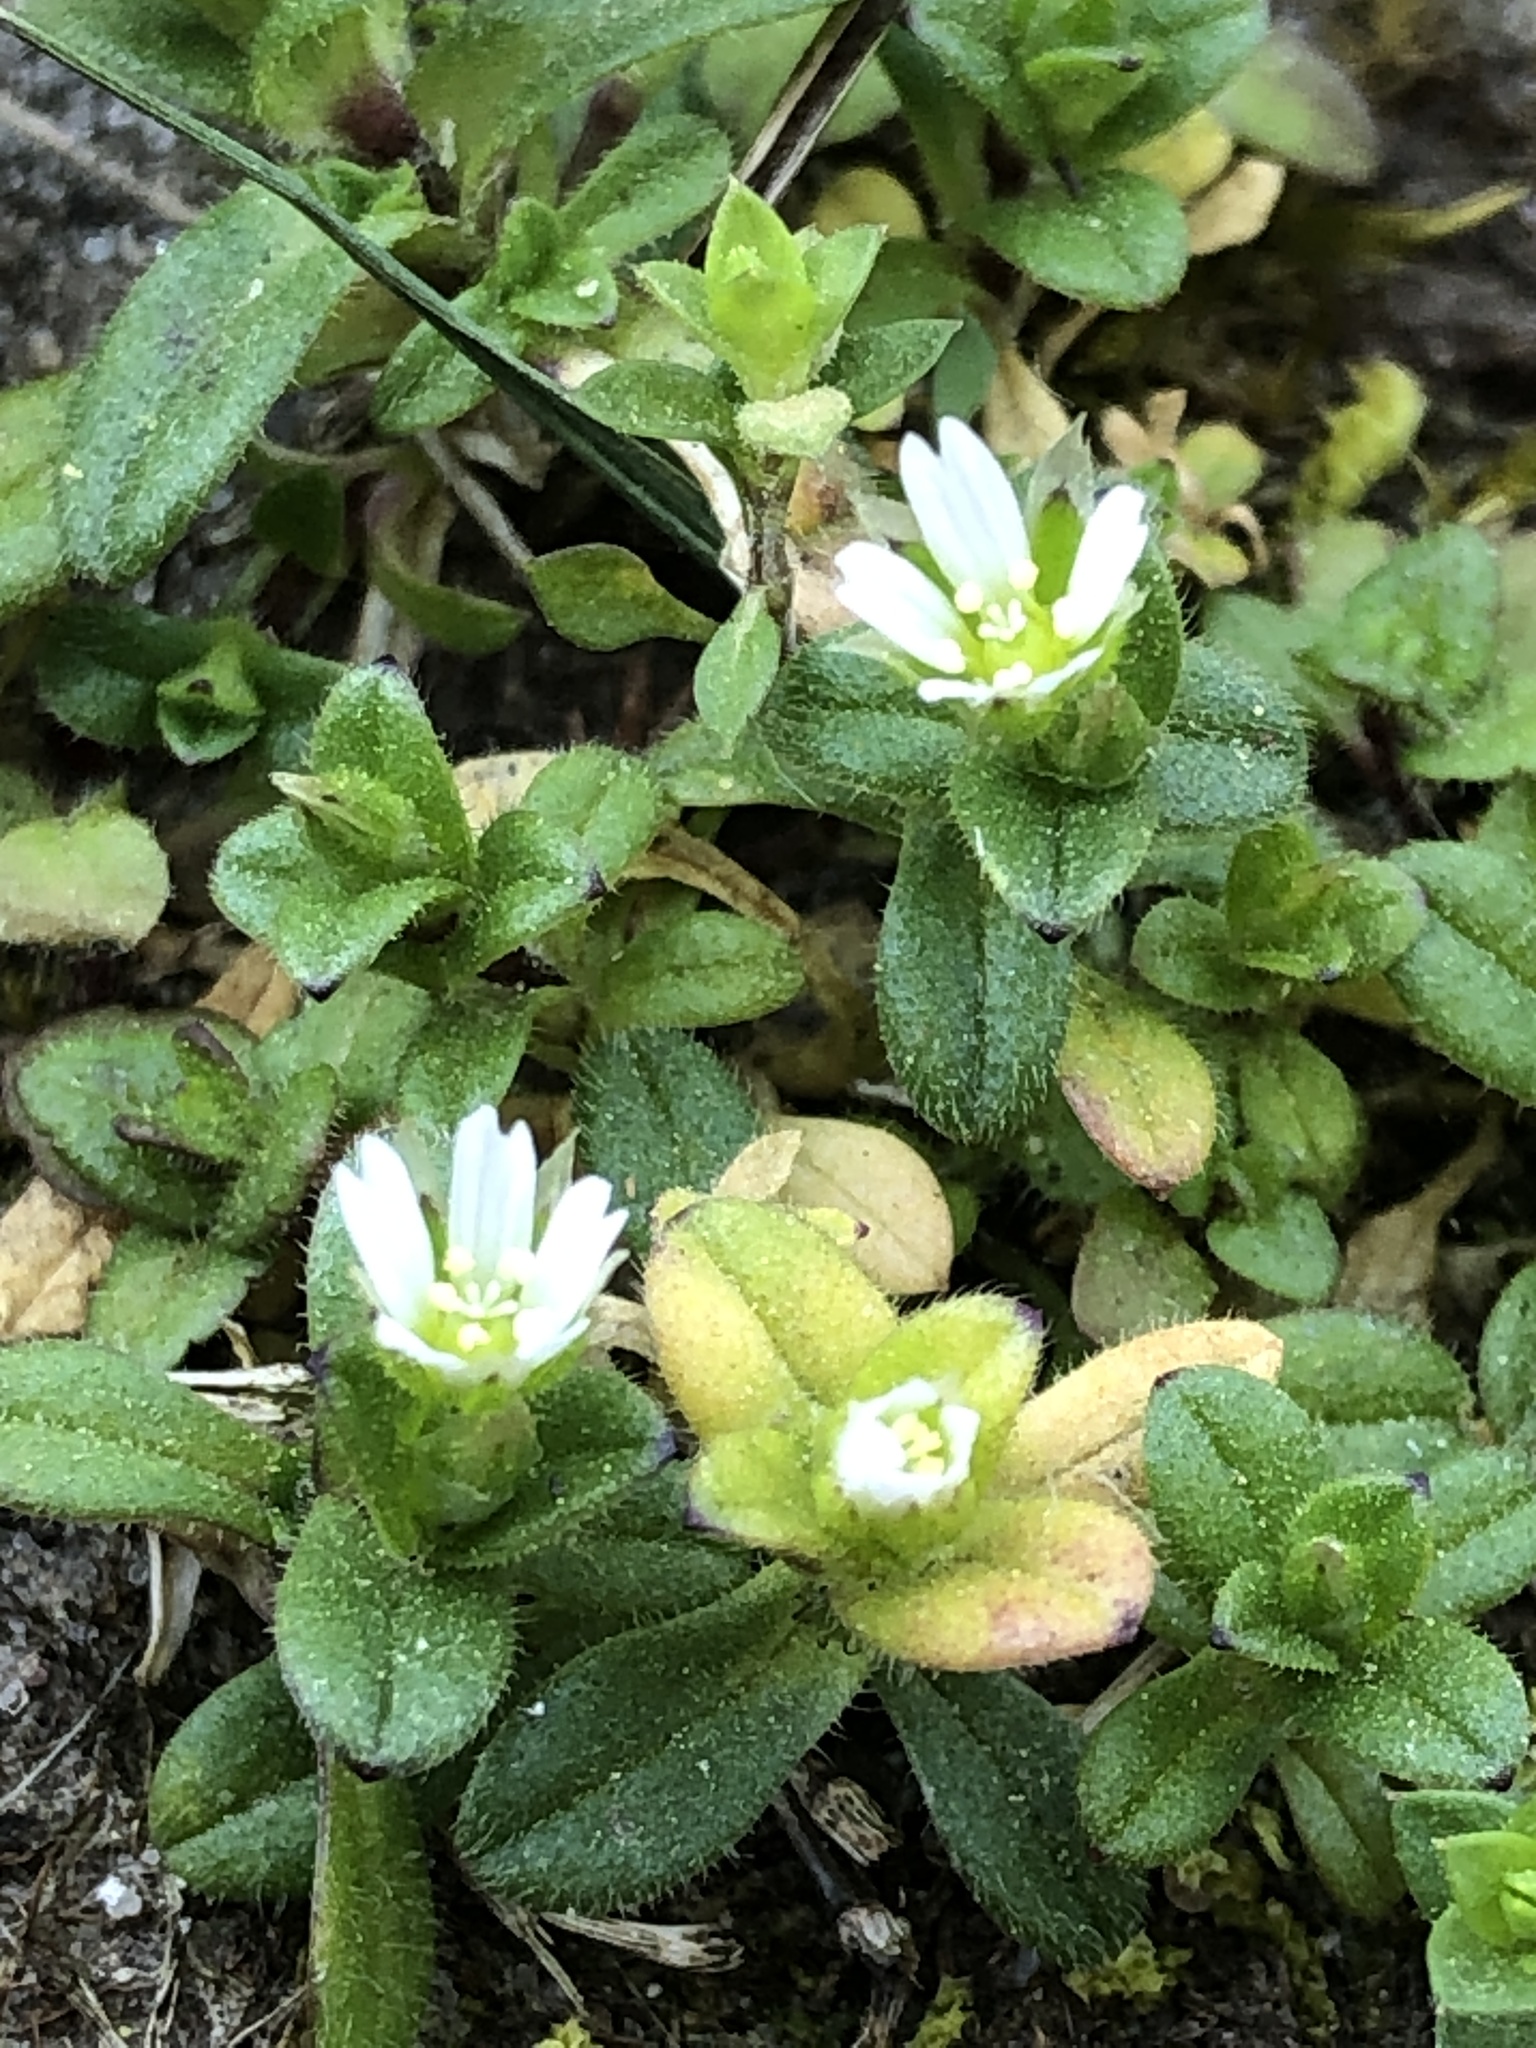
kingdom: Plantae
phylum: Tracheophyta
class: Magnoliopsida
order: Caryophyllales
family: Caryophyllaceae
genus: Cerastium
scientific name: Cerastium semidecandrum
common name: Little mouse-ear
